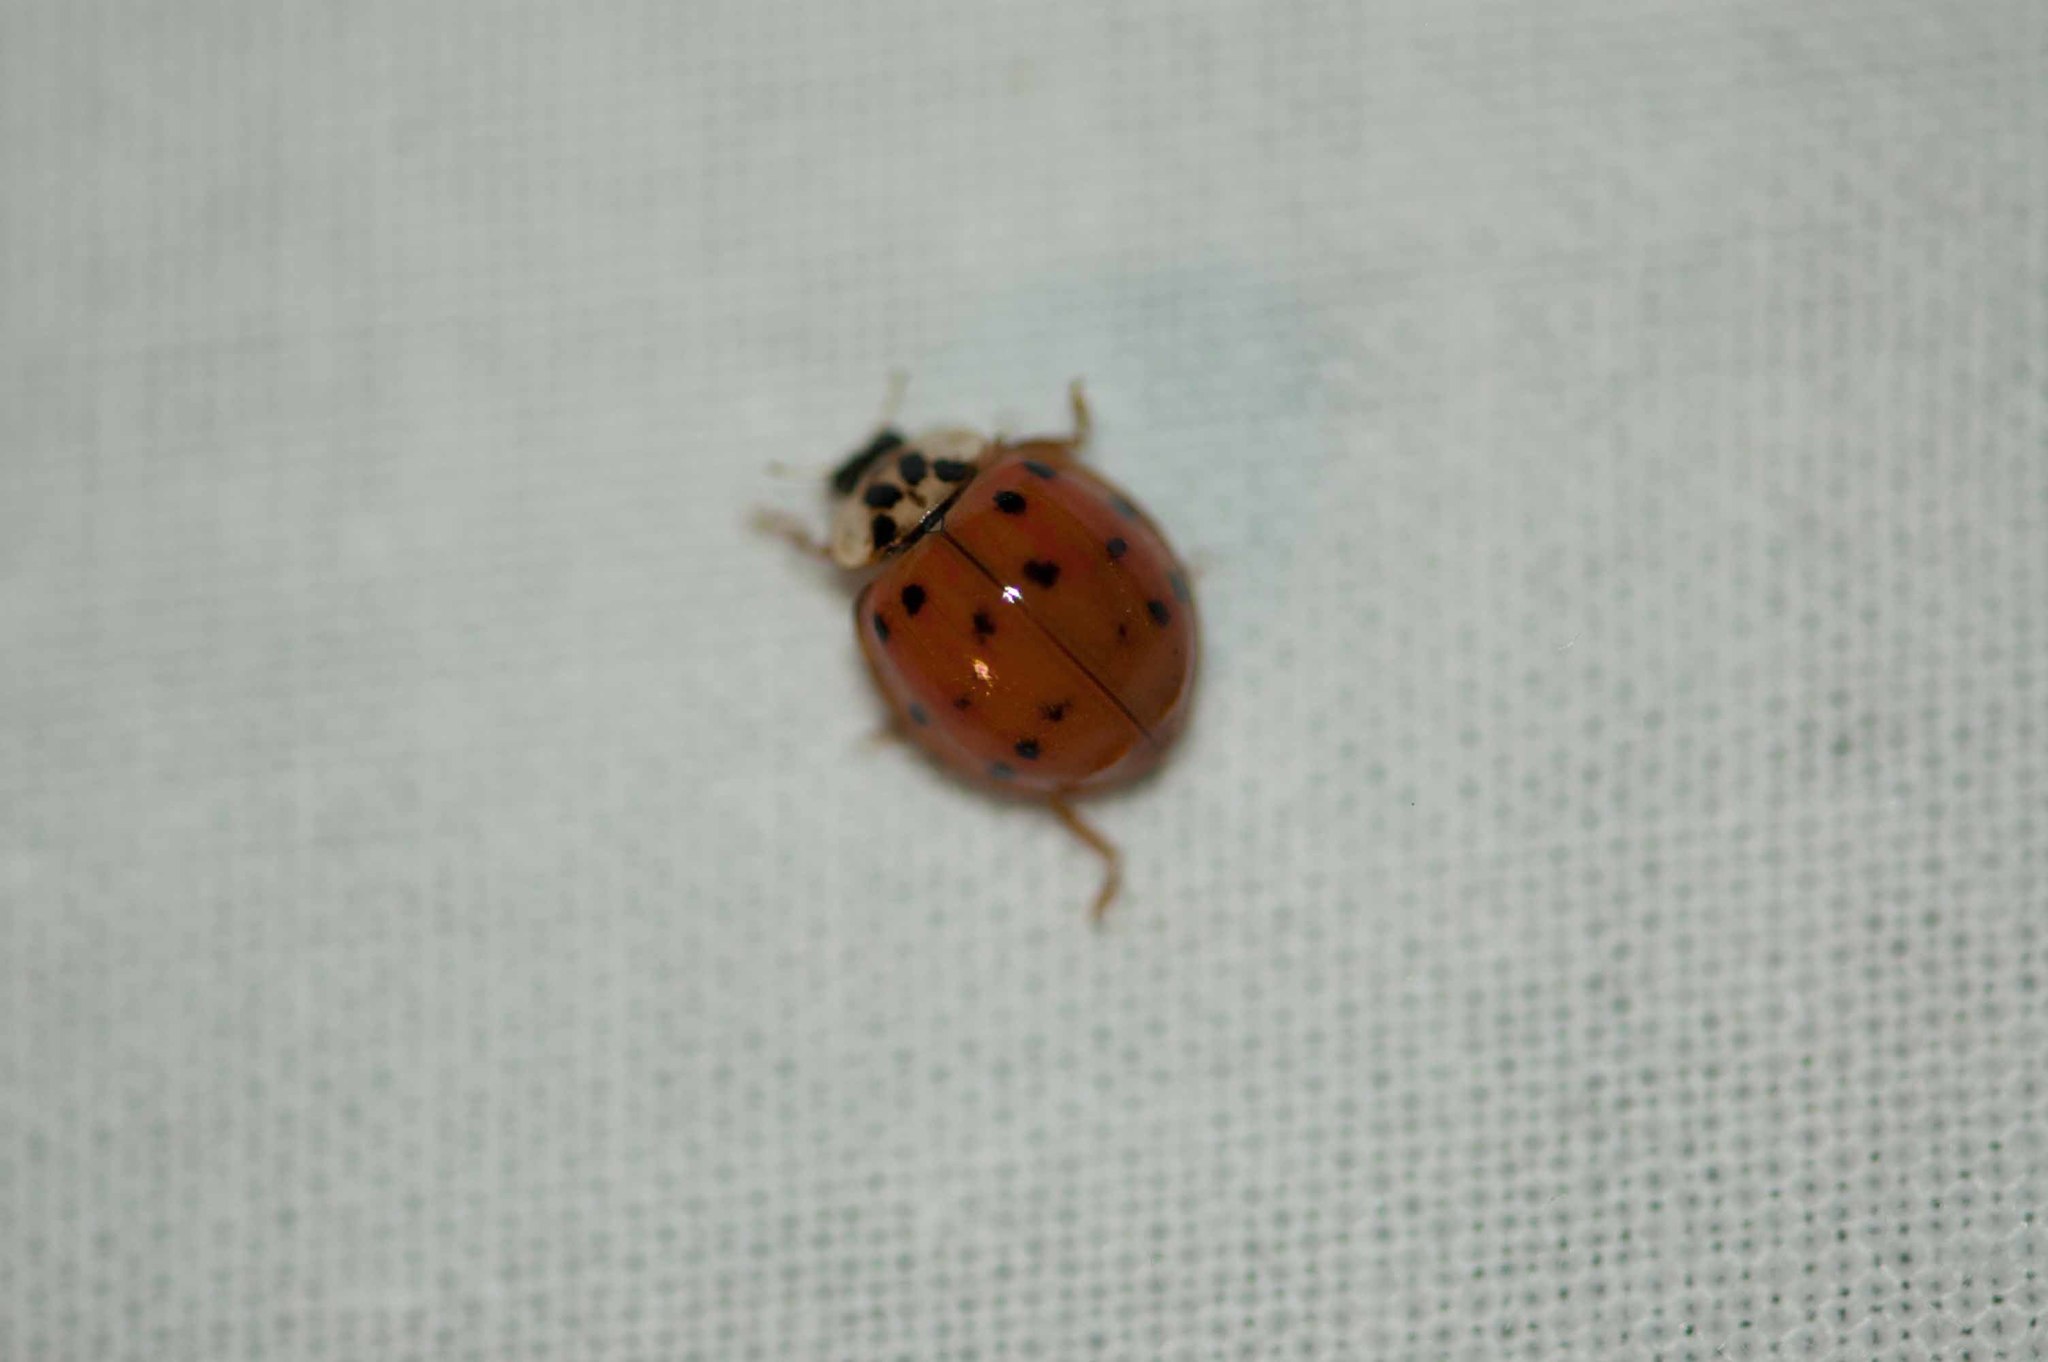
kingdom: Animalia
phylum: Arthropoda
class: Insecta
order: Coleoptera
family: Coccinellidae
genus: Harmonia
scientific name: Harmonia axyridis
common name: Harlequin ladybird
